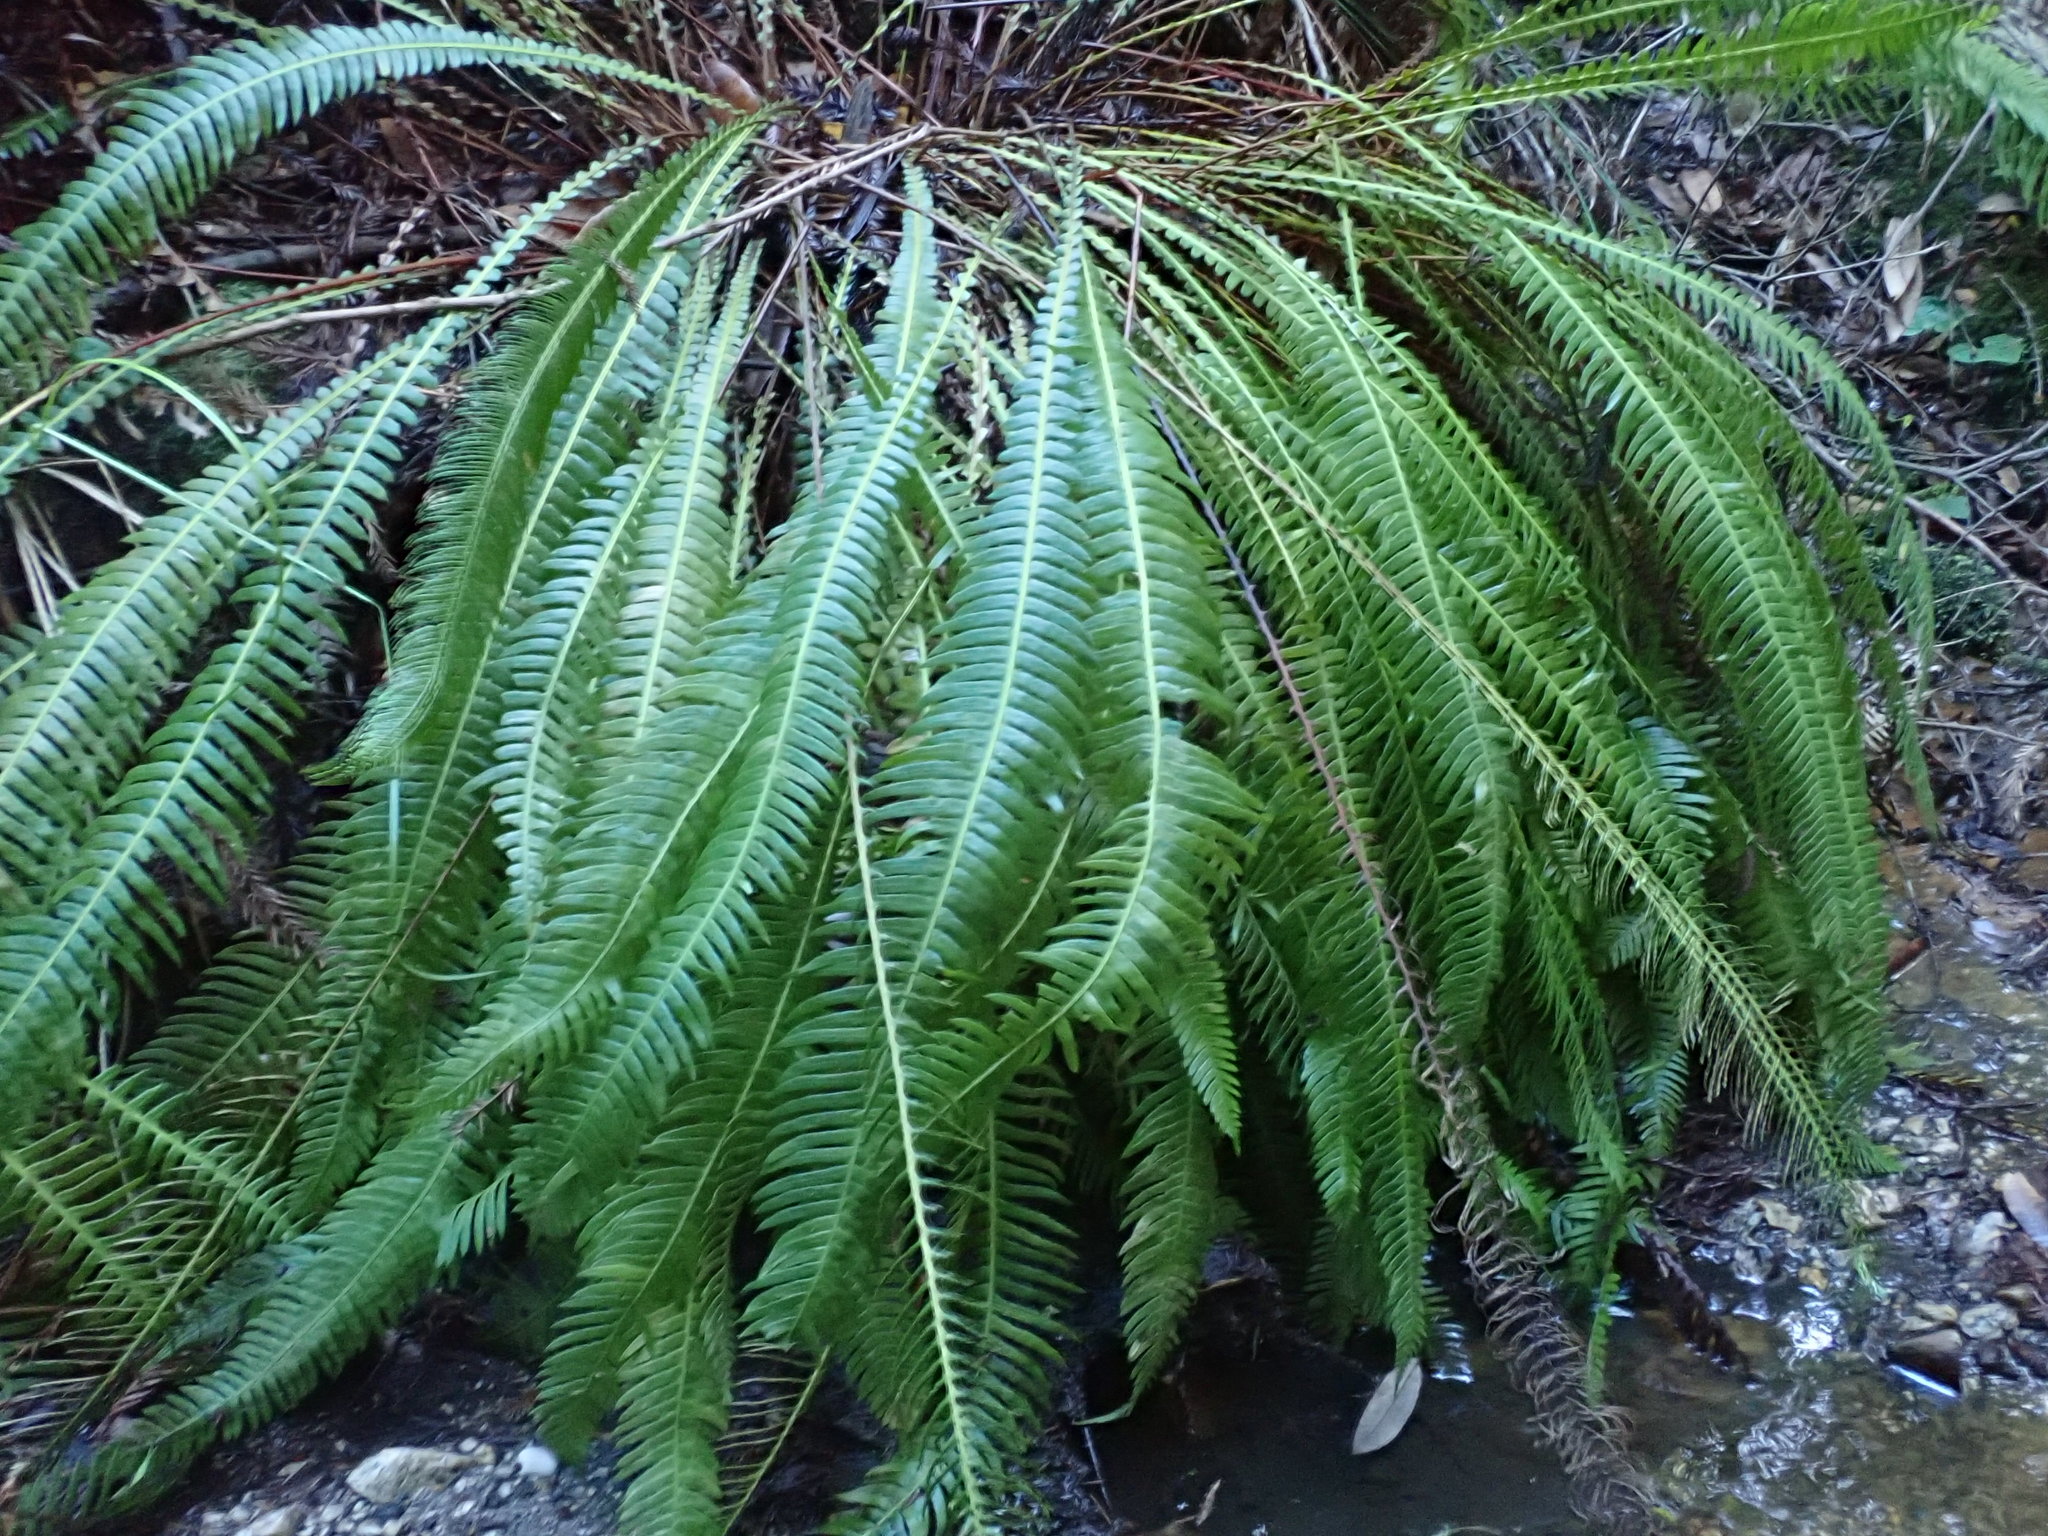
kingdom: Plantae
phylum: Tracheophyta
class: Polypodiopsida
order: Polypodiales
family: Blechnaceae
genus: Struthiopteris
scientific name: Struthiopteris spicant
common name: Deer fern
